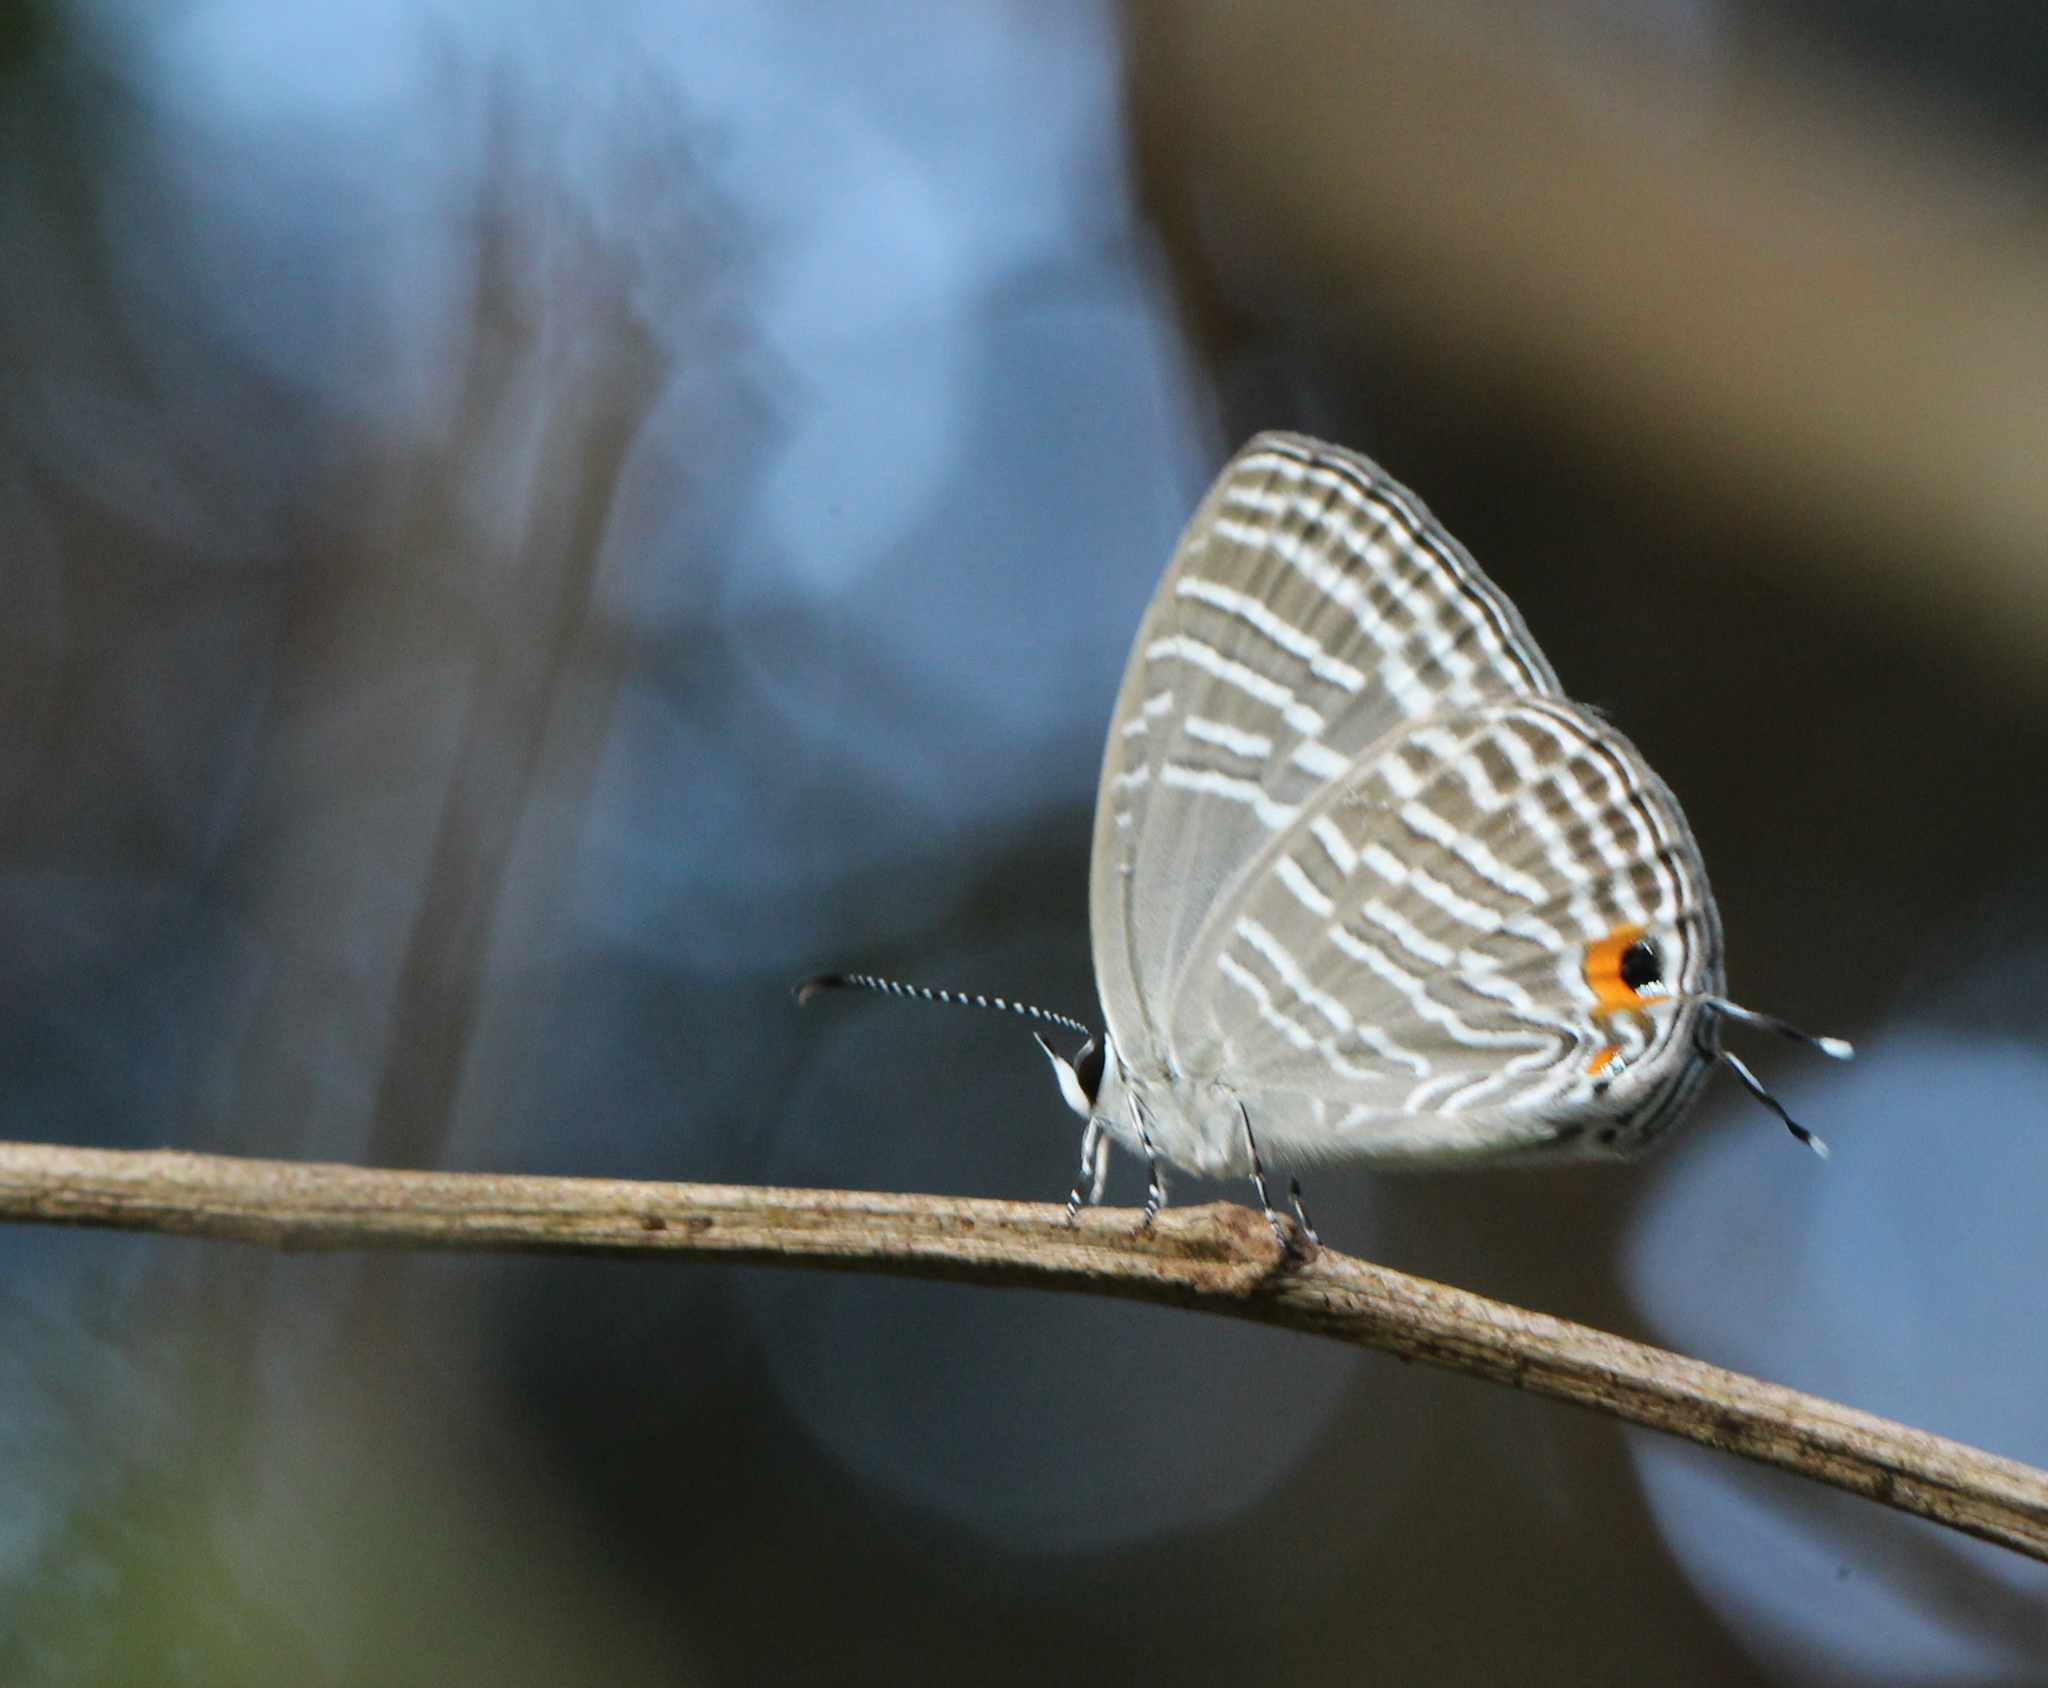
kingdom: Animalia
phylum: Arthropoda
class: Insecta
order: Lepidoptera
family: Lycaenidae
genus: Jamides
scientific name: Jamides celeno
